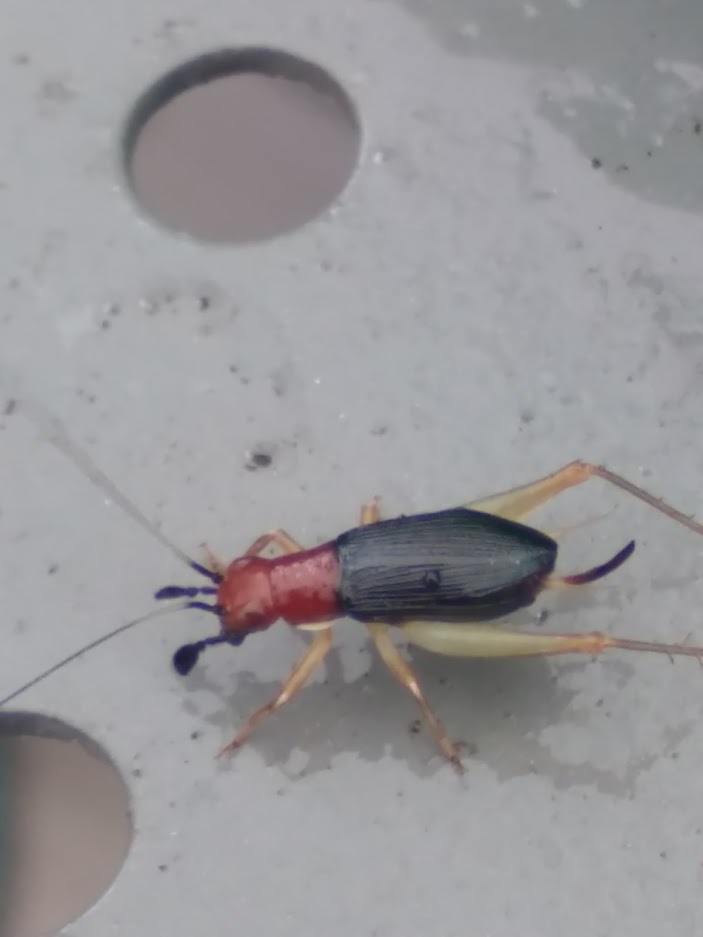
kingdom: Animalia
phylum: Arthropoda
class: Insecta
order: Orthoptera
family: Trigonidiidae
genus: Phyllopalpus
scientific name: Phyllopalpus pulchellus
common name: Handsome trig
